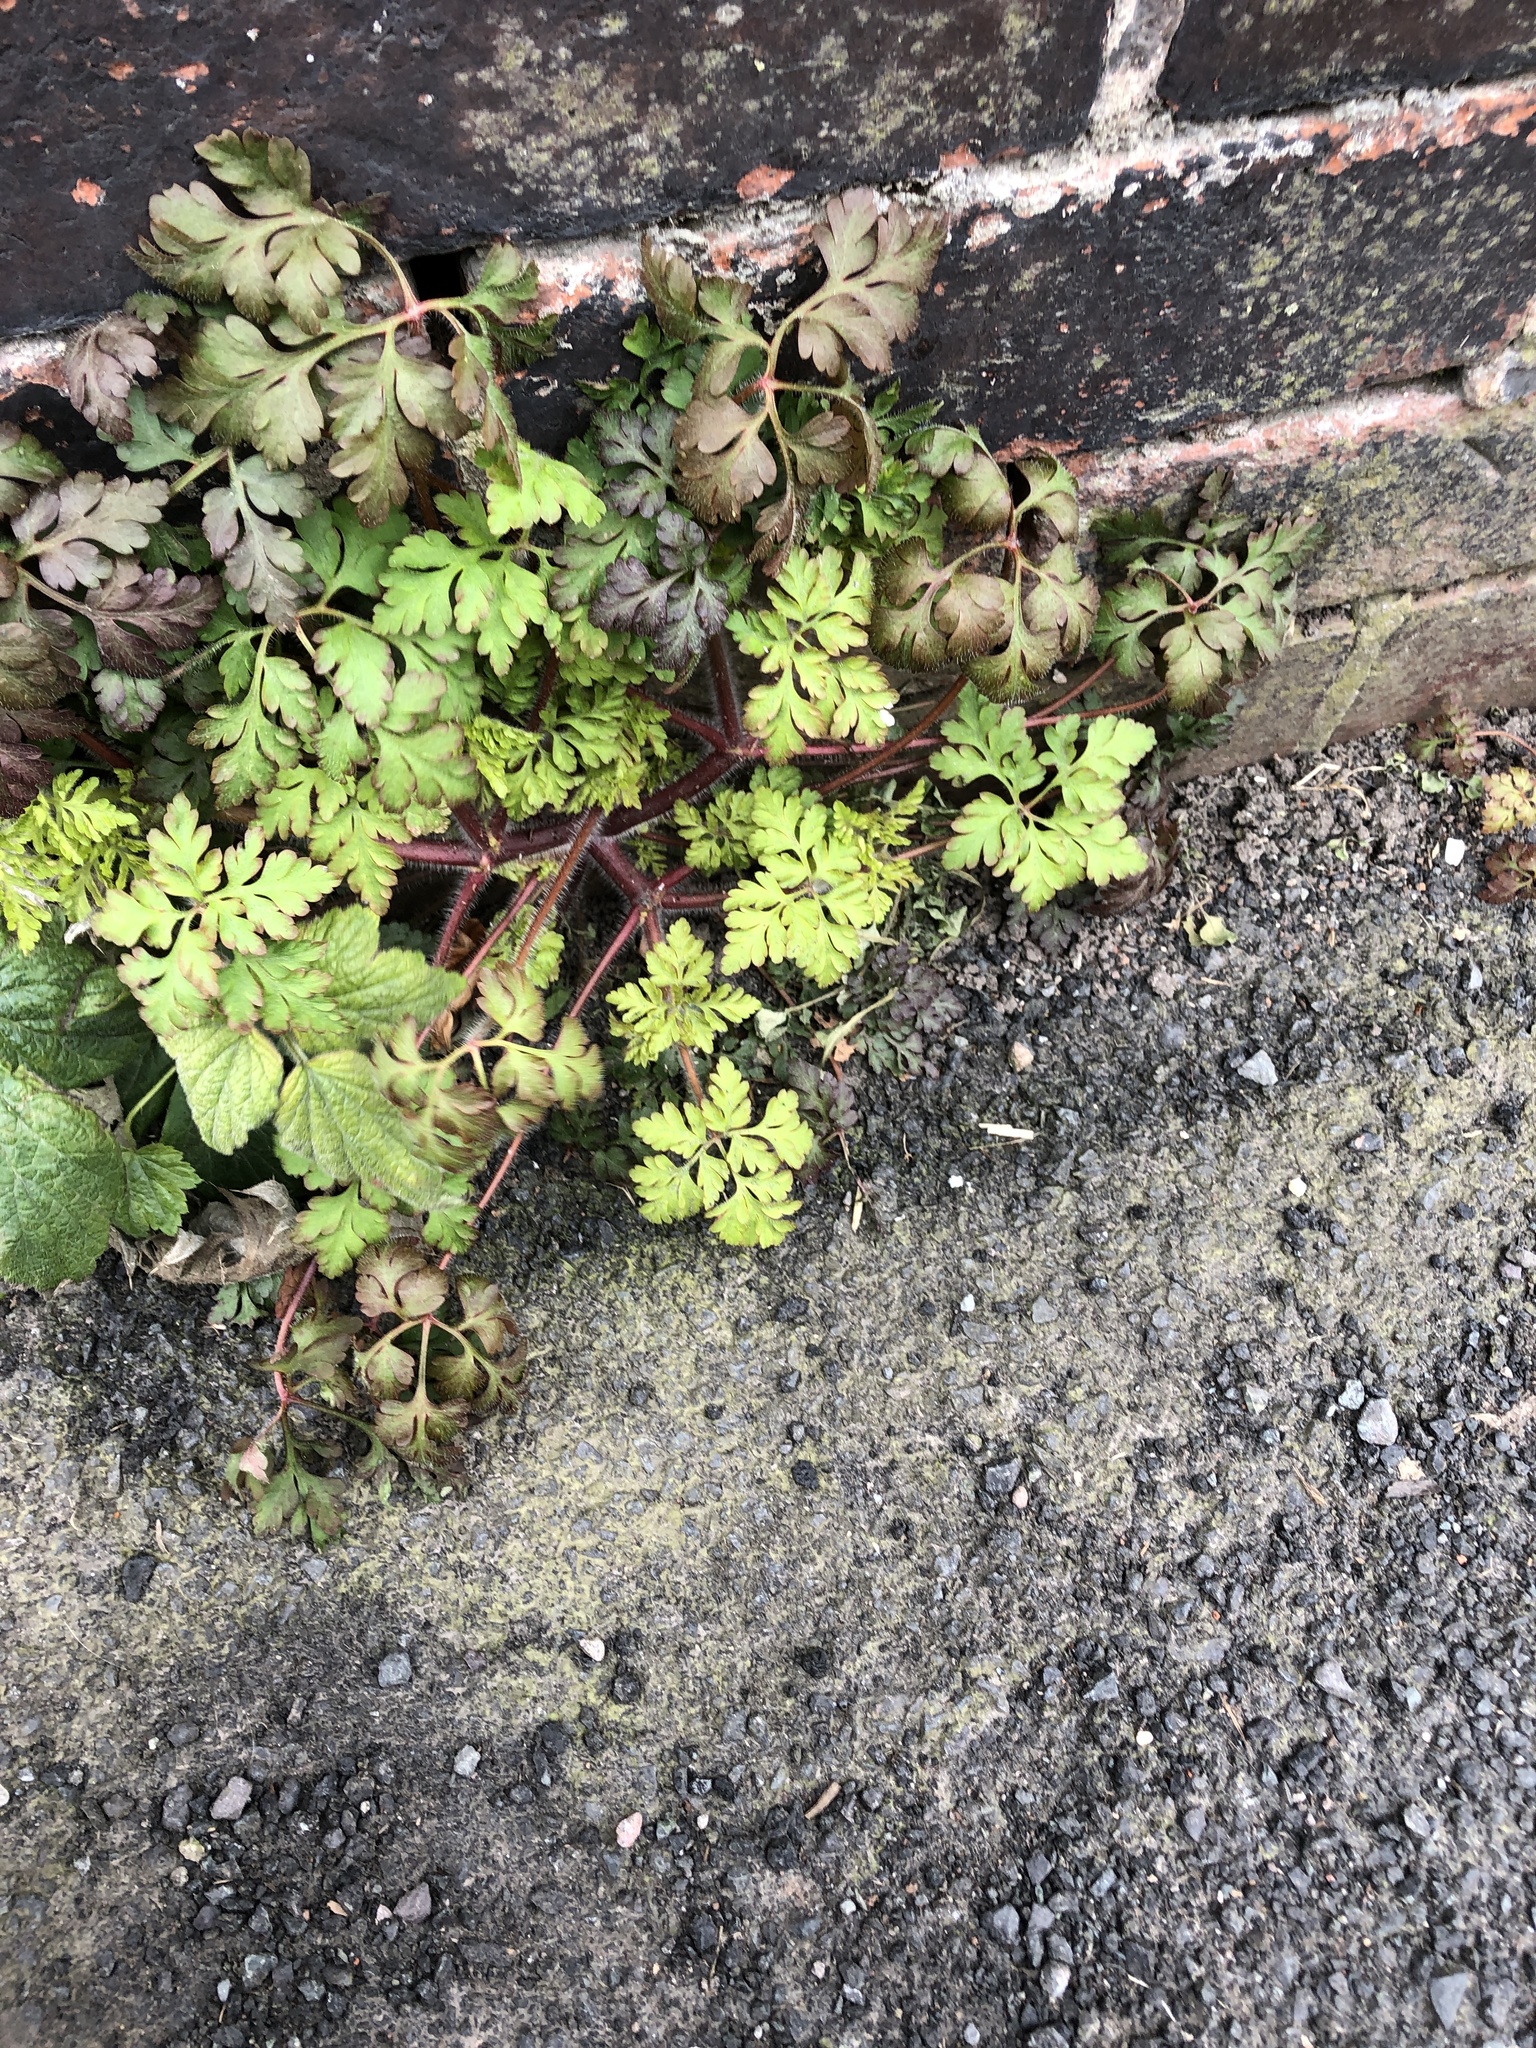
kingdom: Plantae
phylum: Tracheophyta
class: Magnoliopsida
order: Geraniales
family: Geraniaceae
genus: Geranium
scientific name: Geranium robertianum
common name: Herb-robert
